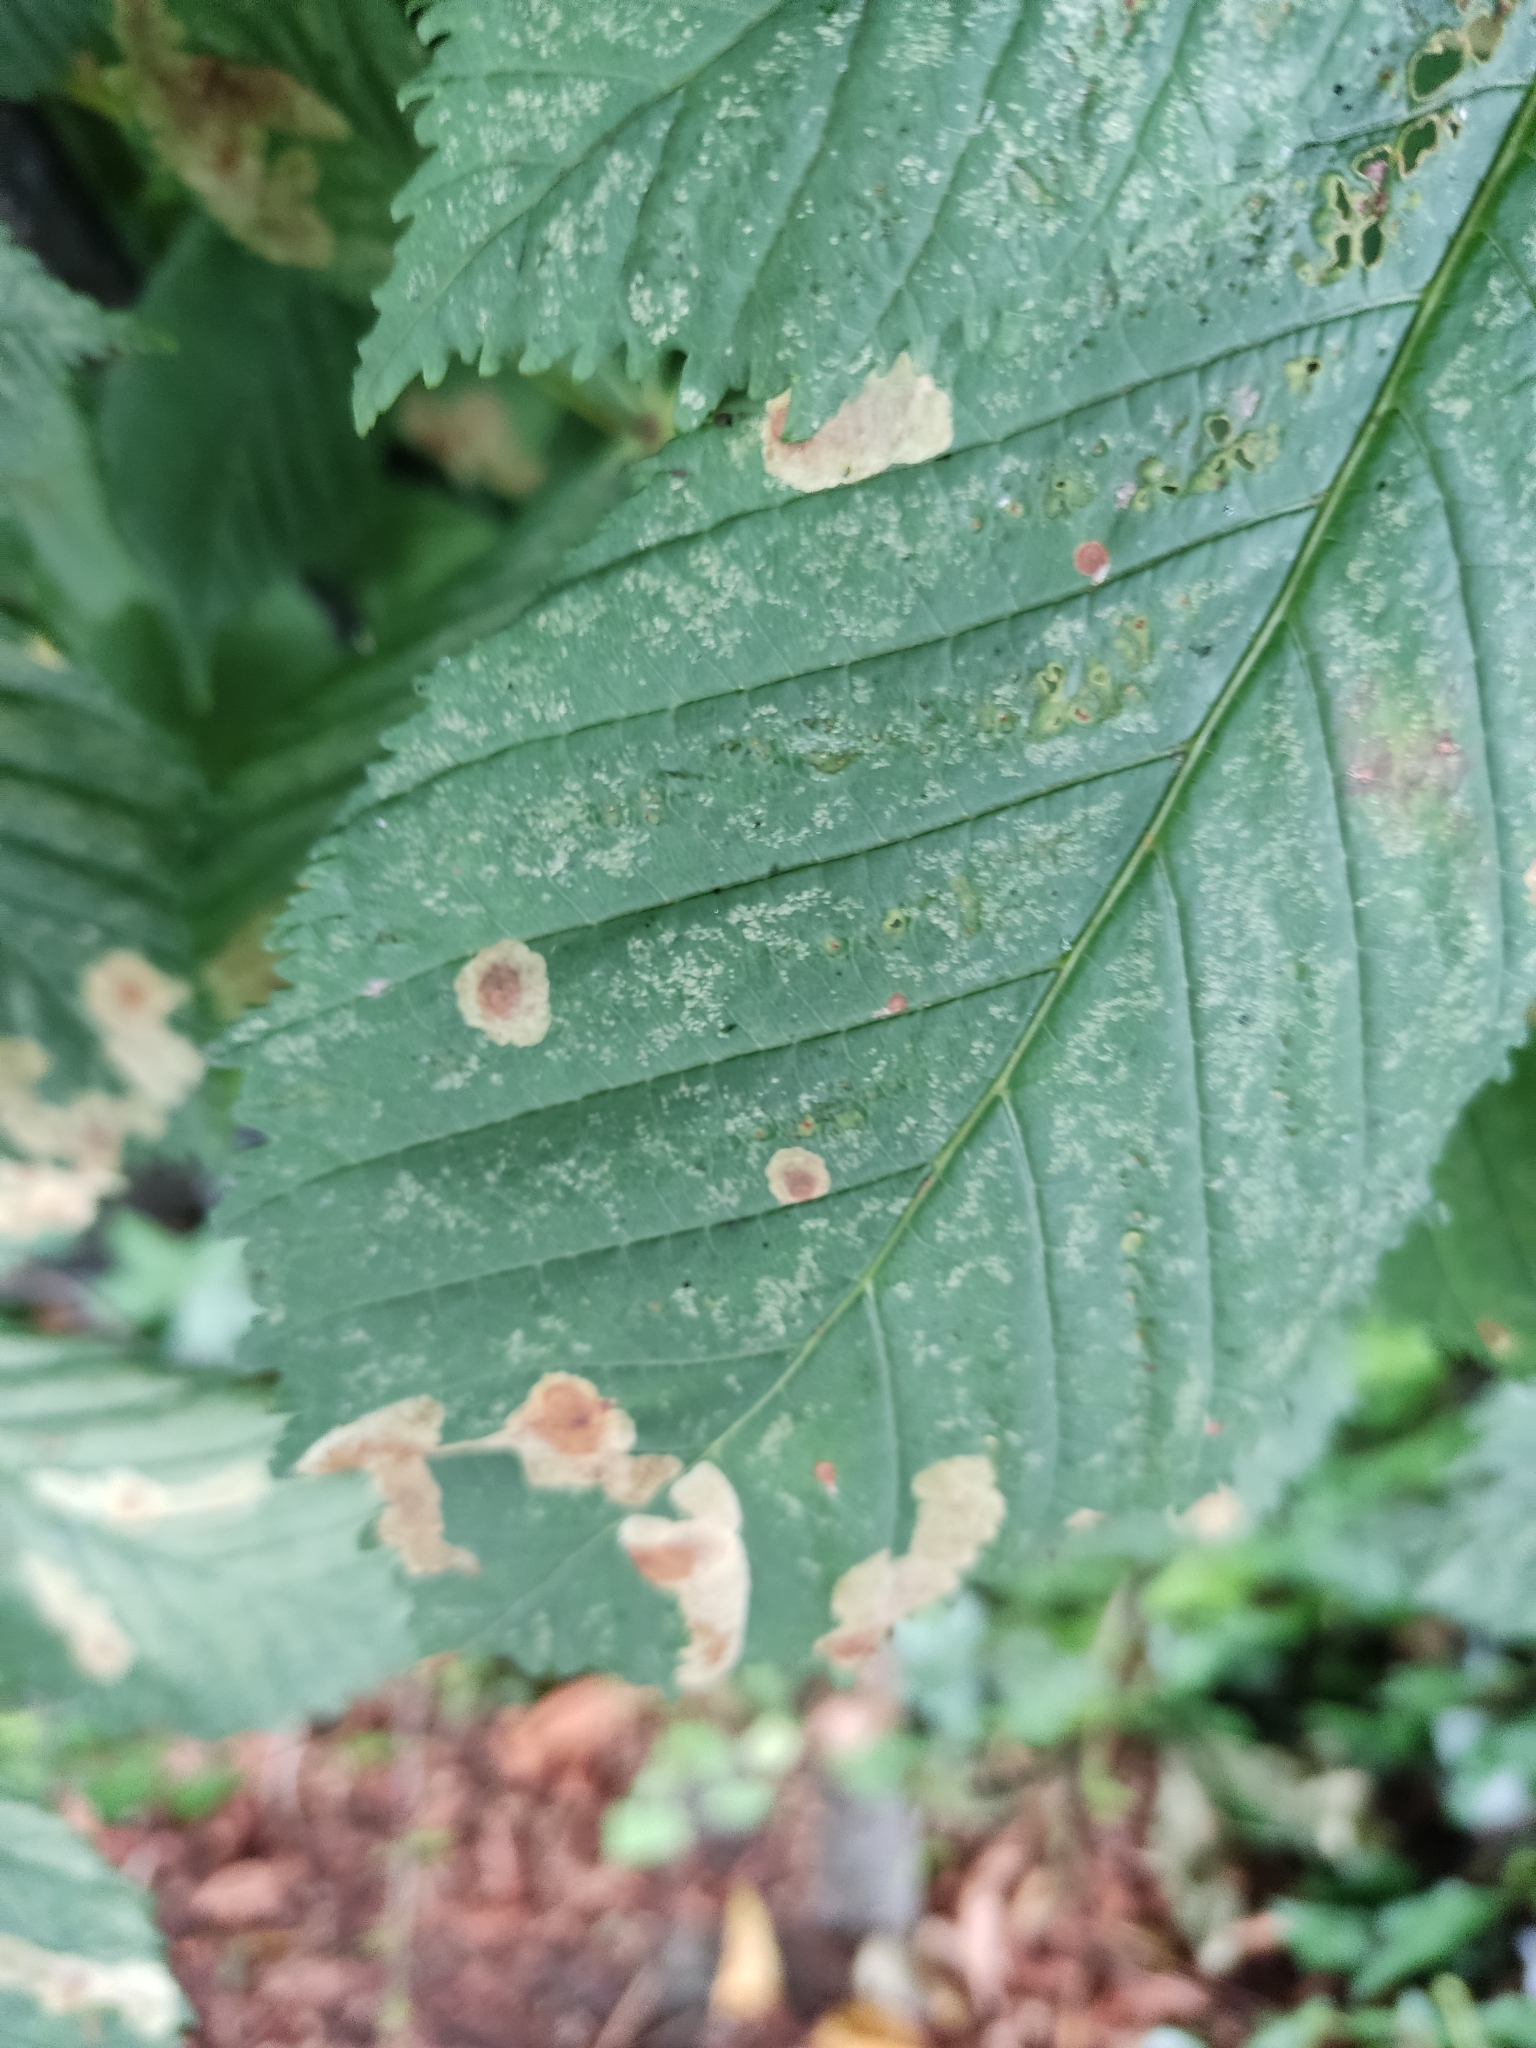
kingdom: Animalia
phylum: Arthropoda
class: Insecta
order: Lepidoptera
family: Gracillariidae
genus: Cameraria
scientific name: Cameraria ohridella
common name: Horse-chestnut leaf-miner
